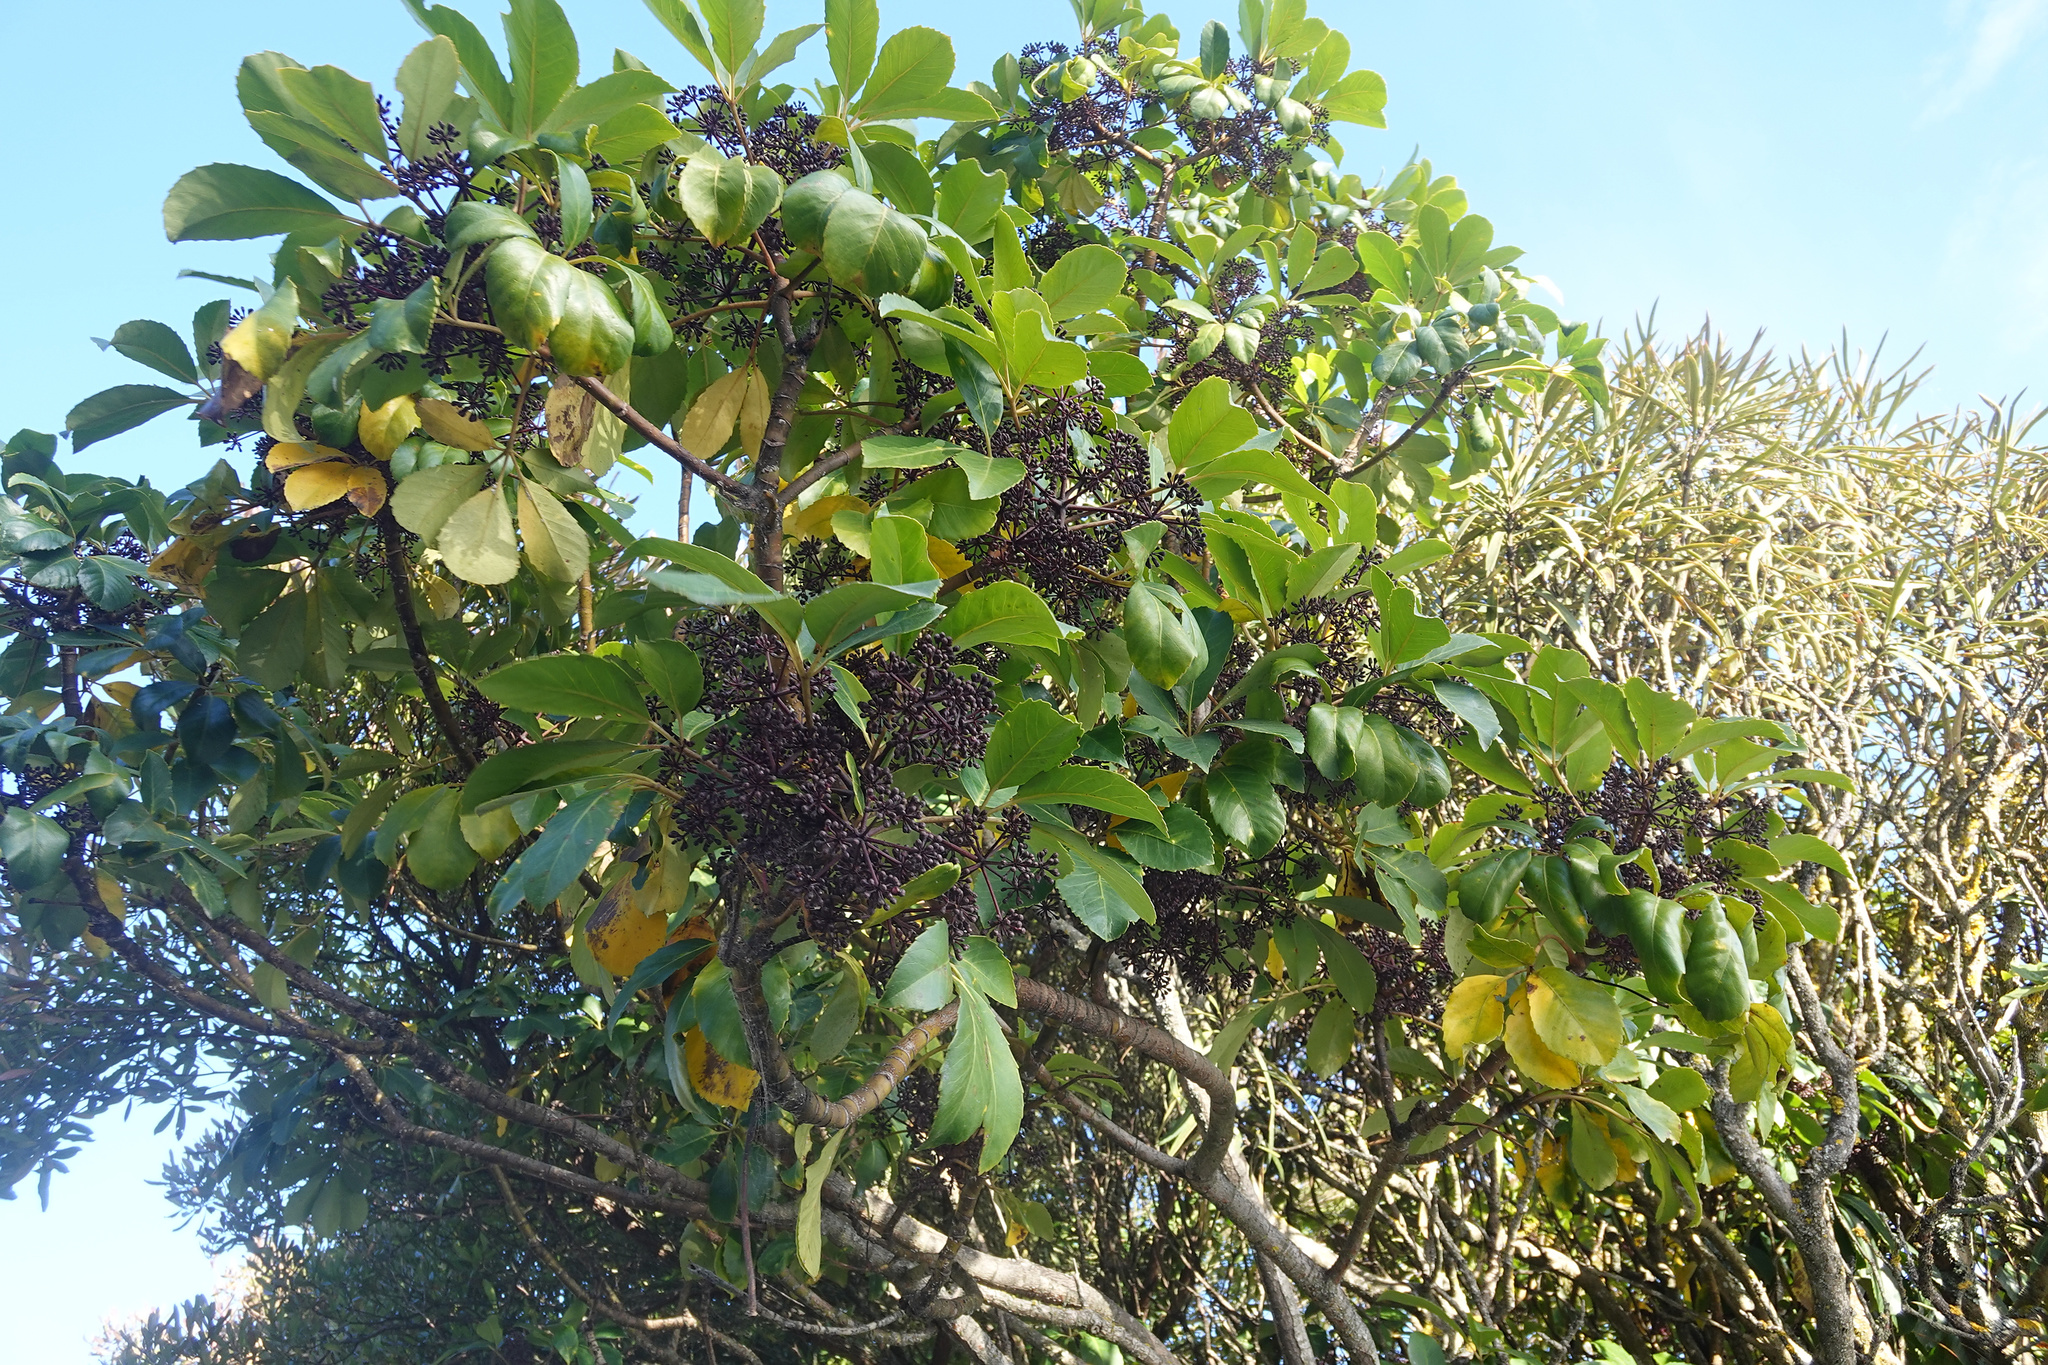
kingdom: Plantae
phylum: Tracheophyta
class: Magnoliopsida
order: Apiales
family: Araliaceae
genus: Neopanax
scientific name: Neopanax arboreus
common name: Five-fingers
